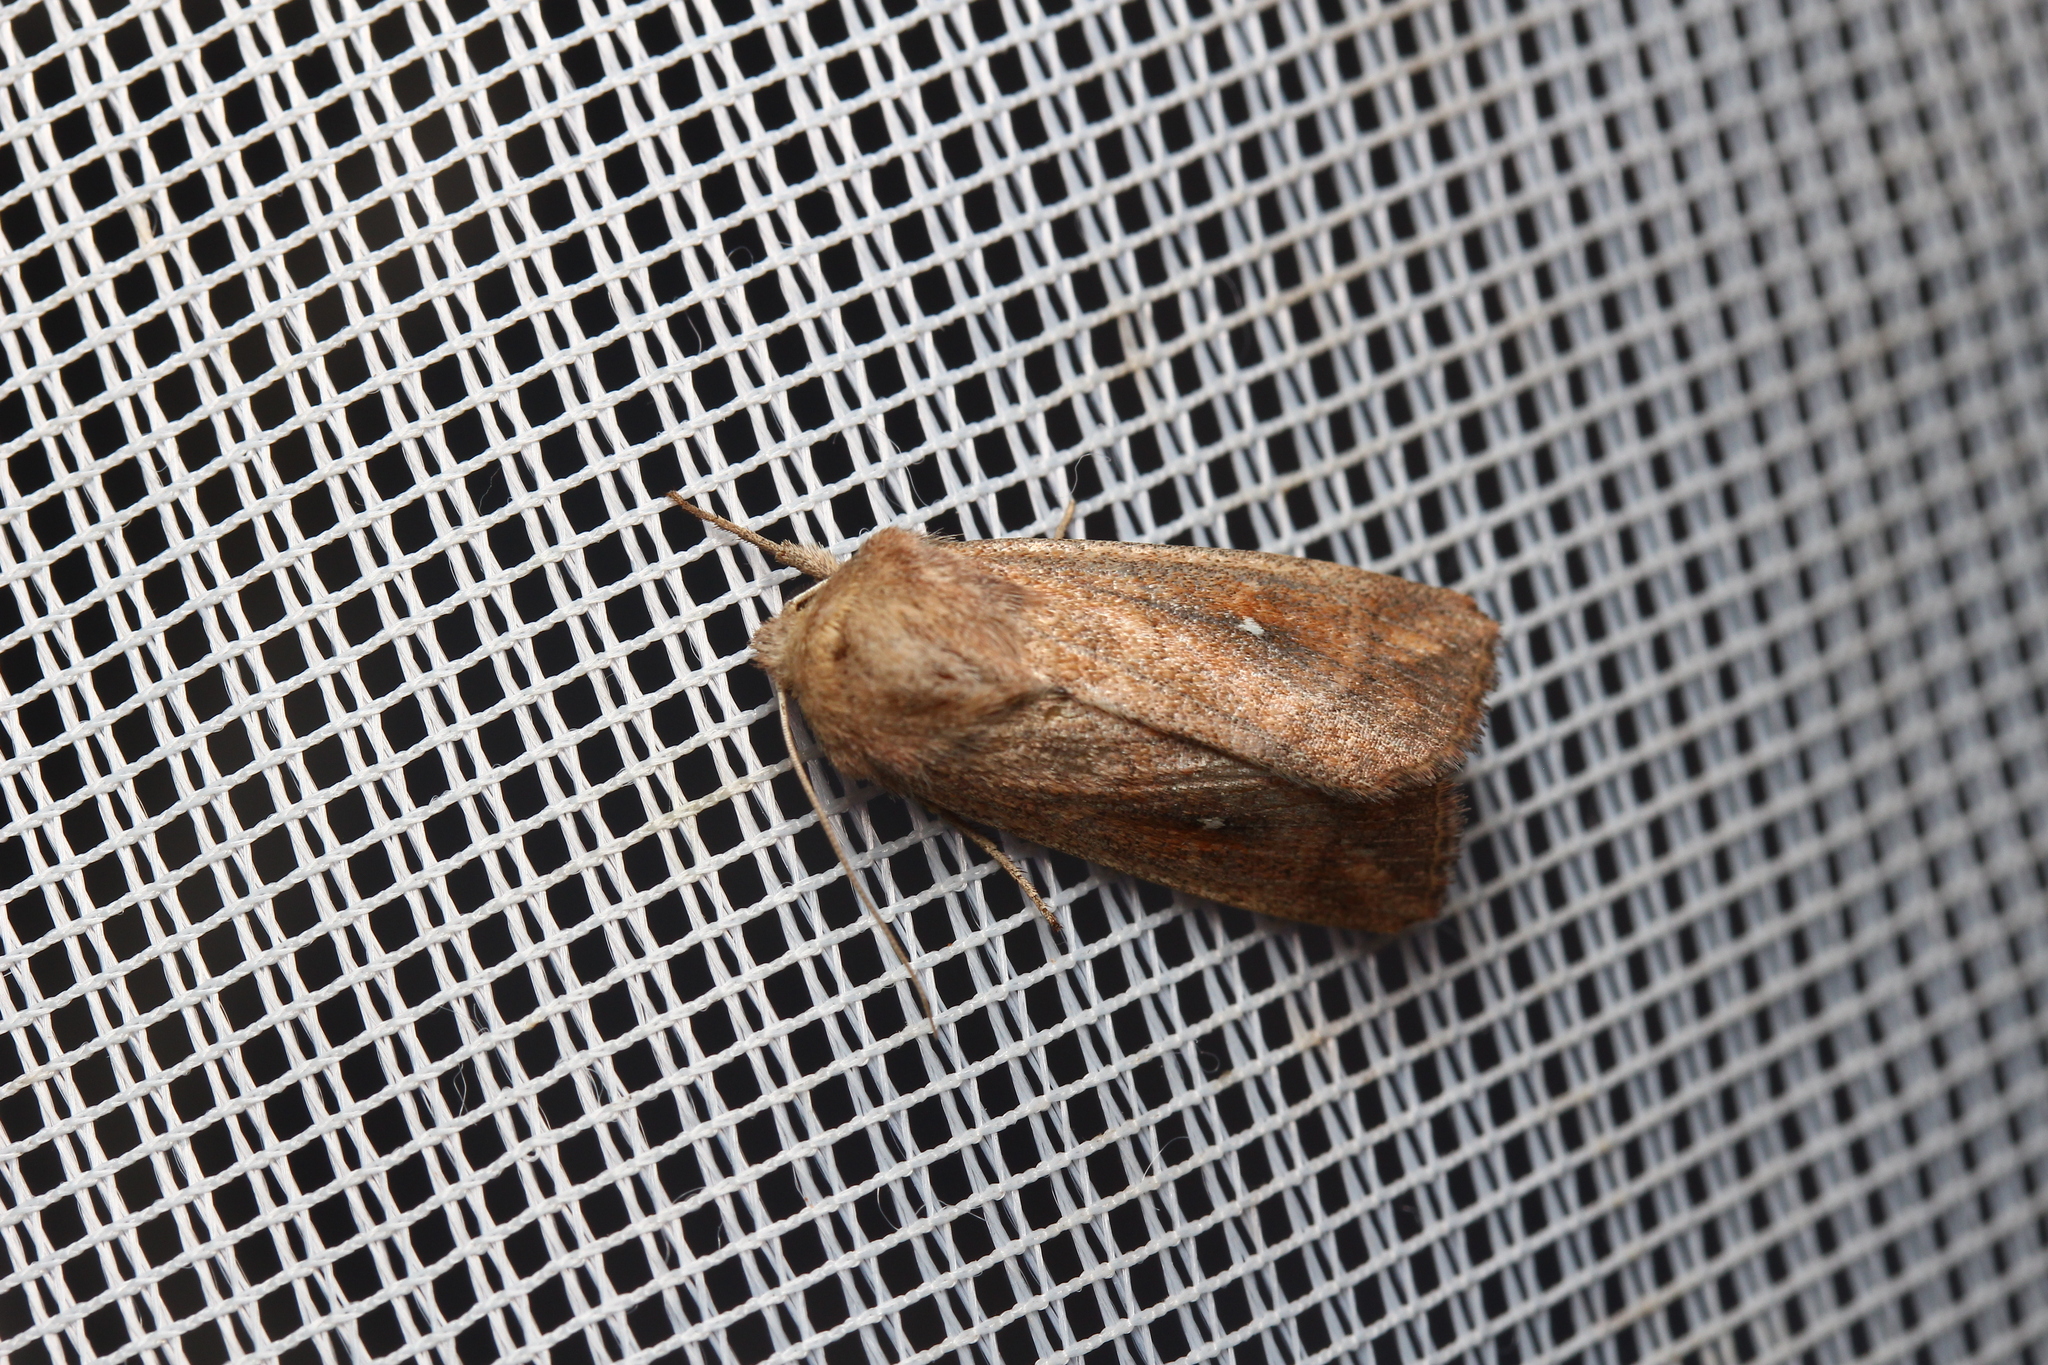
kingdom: Animalia
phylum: Arthropoda
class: Insecta
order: Lepidoptera
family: Noctuidae
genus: Mythimna
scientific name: Mythimna albipuncta
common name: White-point
